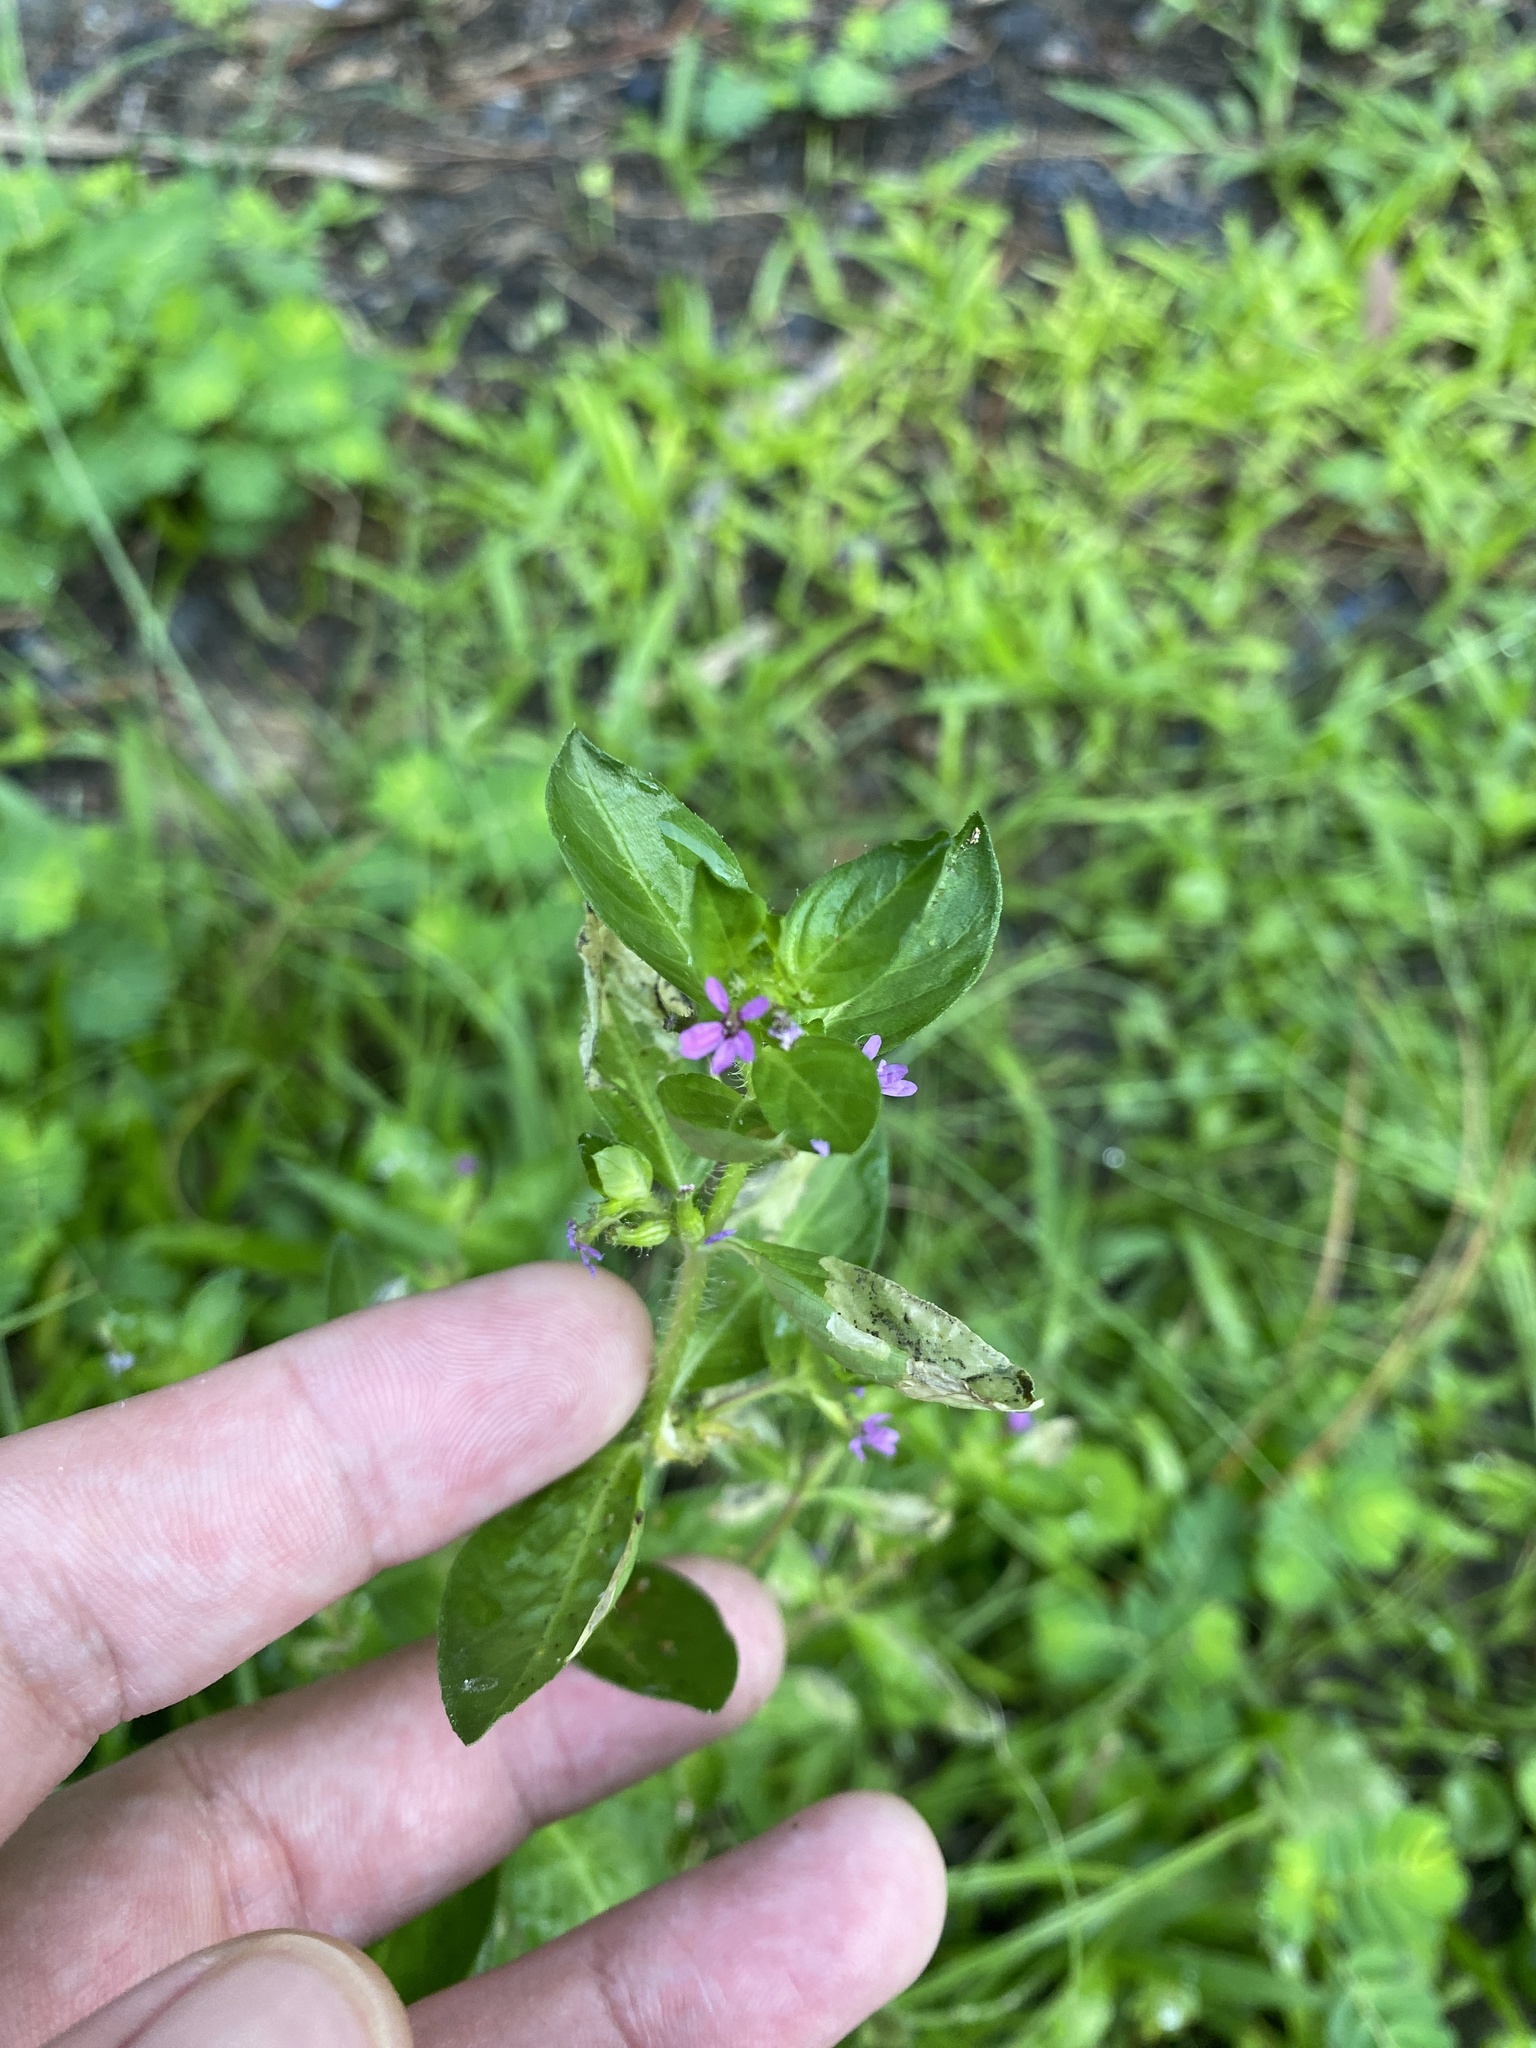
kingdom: Plantae
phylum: Tracheophyta
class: Magnoliopsida
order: Myrtales
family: Lythraceae
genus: Cuphea
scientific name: Cuphea carthagenensis
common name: Colombian waxweed
